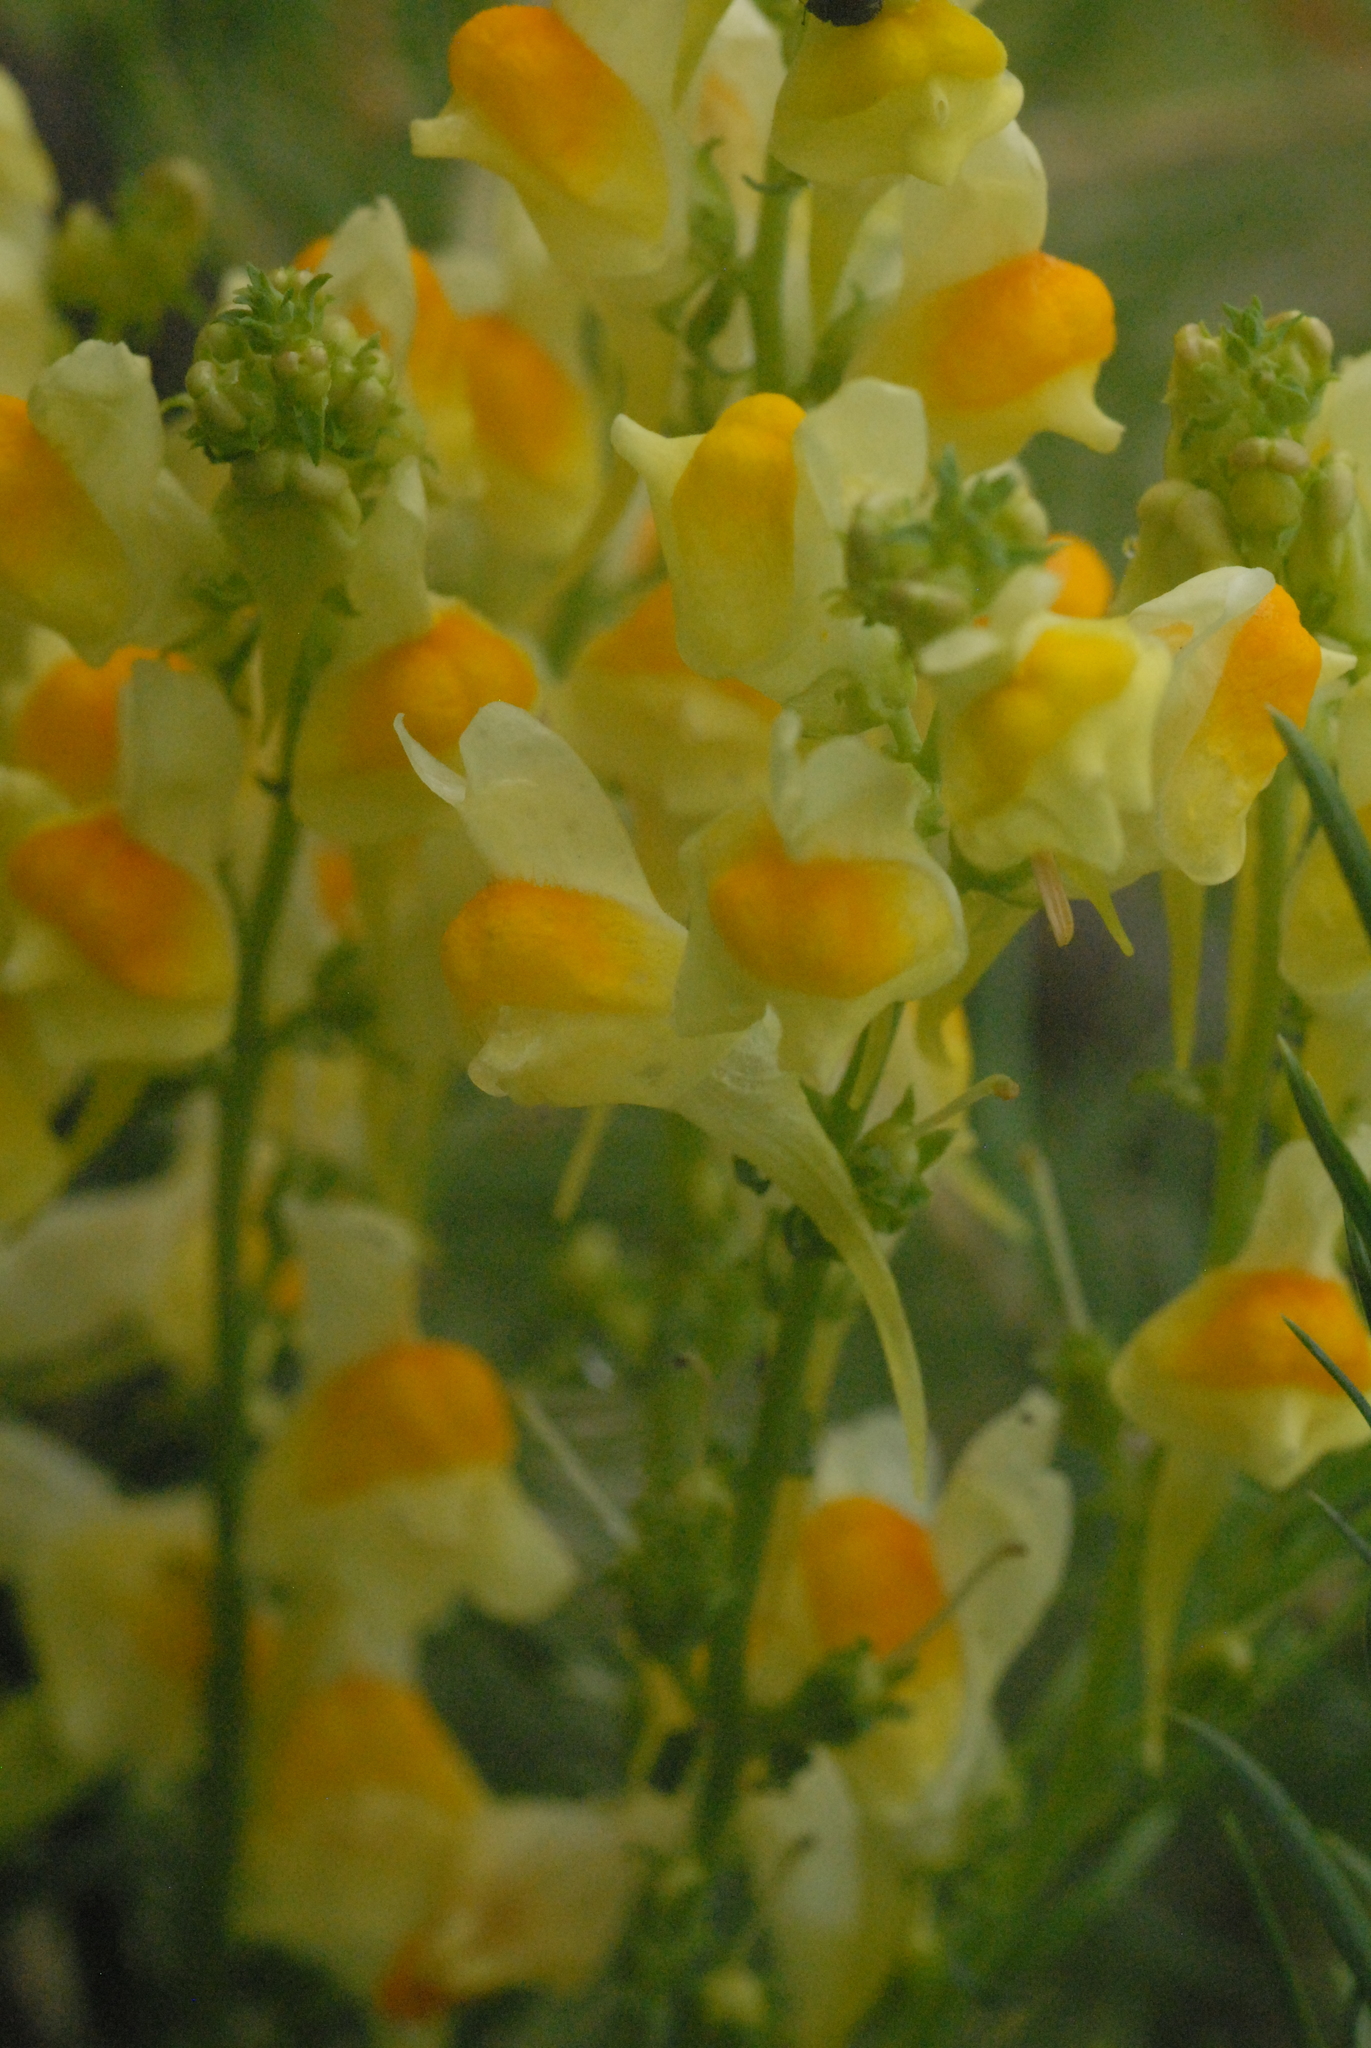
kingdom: Plantae
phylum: Tracheophyta
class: Magnoliopsida
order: Lamiales
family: Plantaginaceae
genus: Linaria
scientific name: Linaria vulgaris
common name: Butter and eggs
